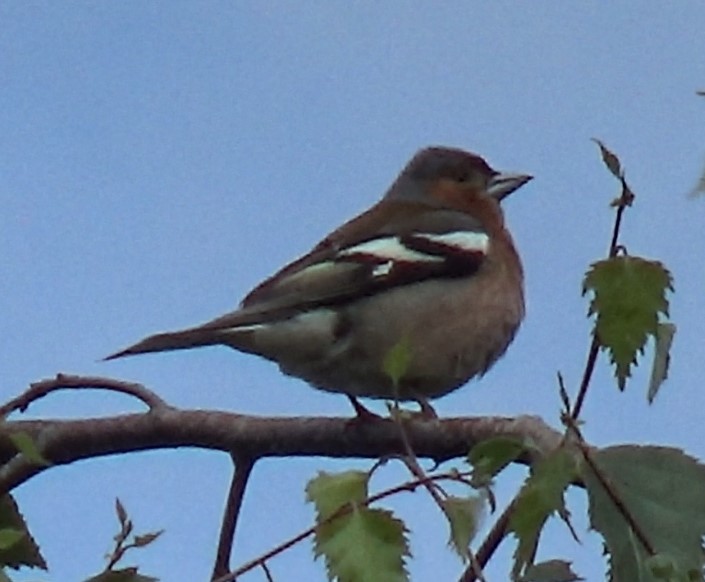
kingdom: Animalia
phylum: Chordata
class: Aves
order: Passeriformes
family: Fringillidae
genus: Fringilla
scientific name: Fringilla coelebs
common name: Common chaffinch
